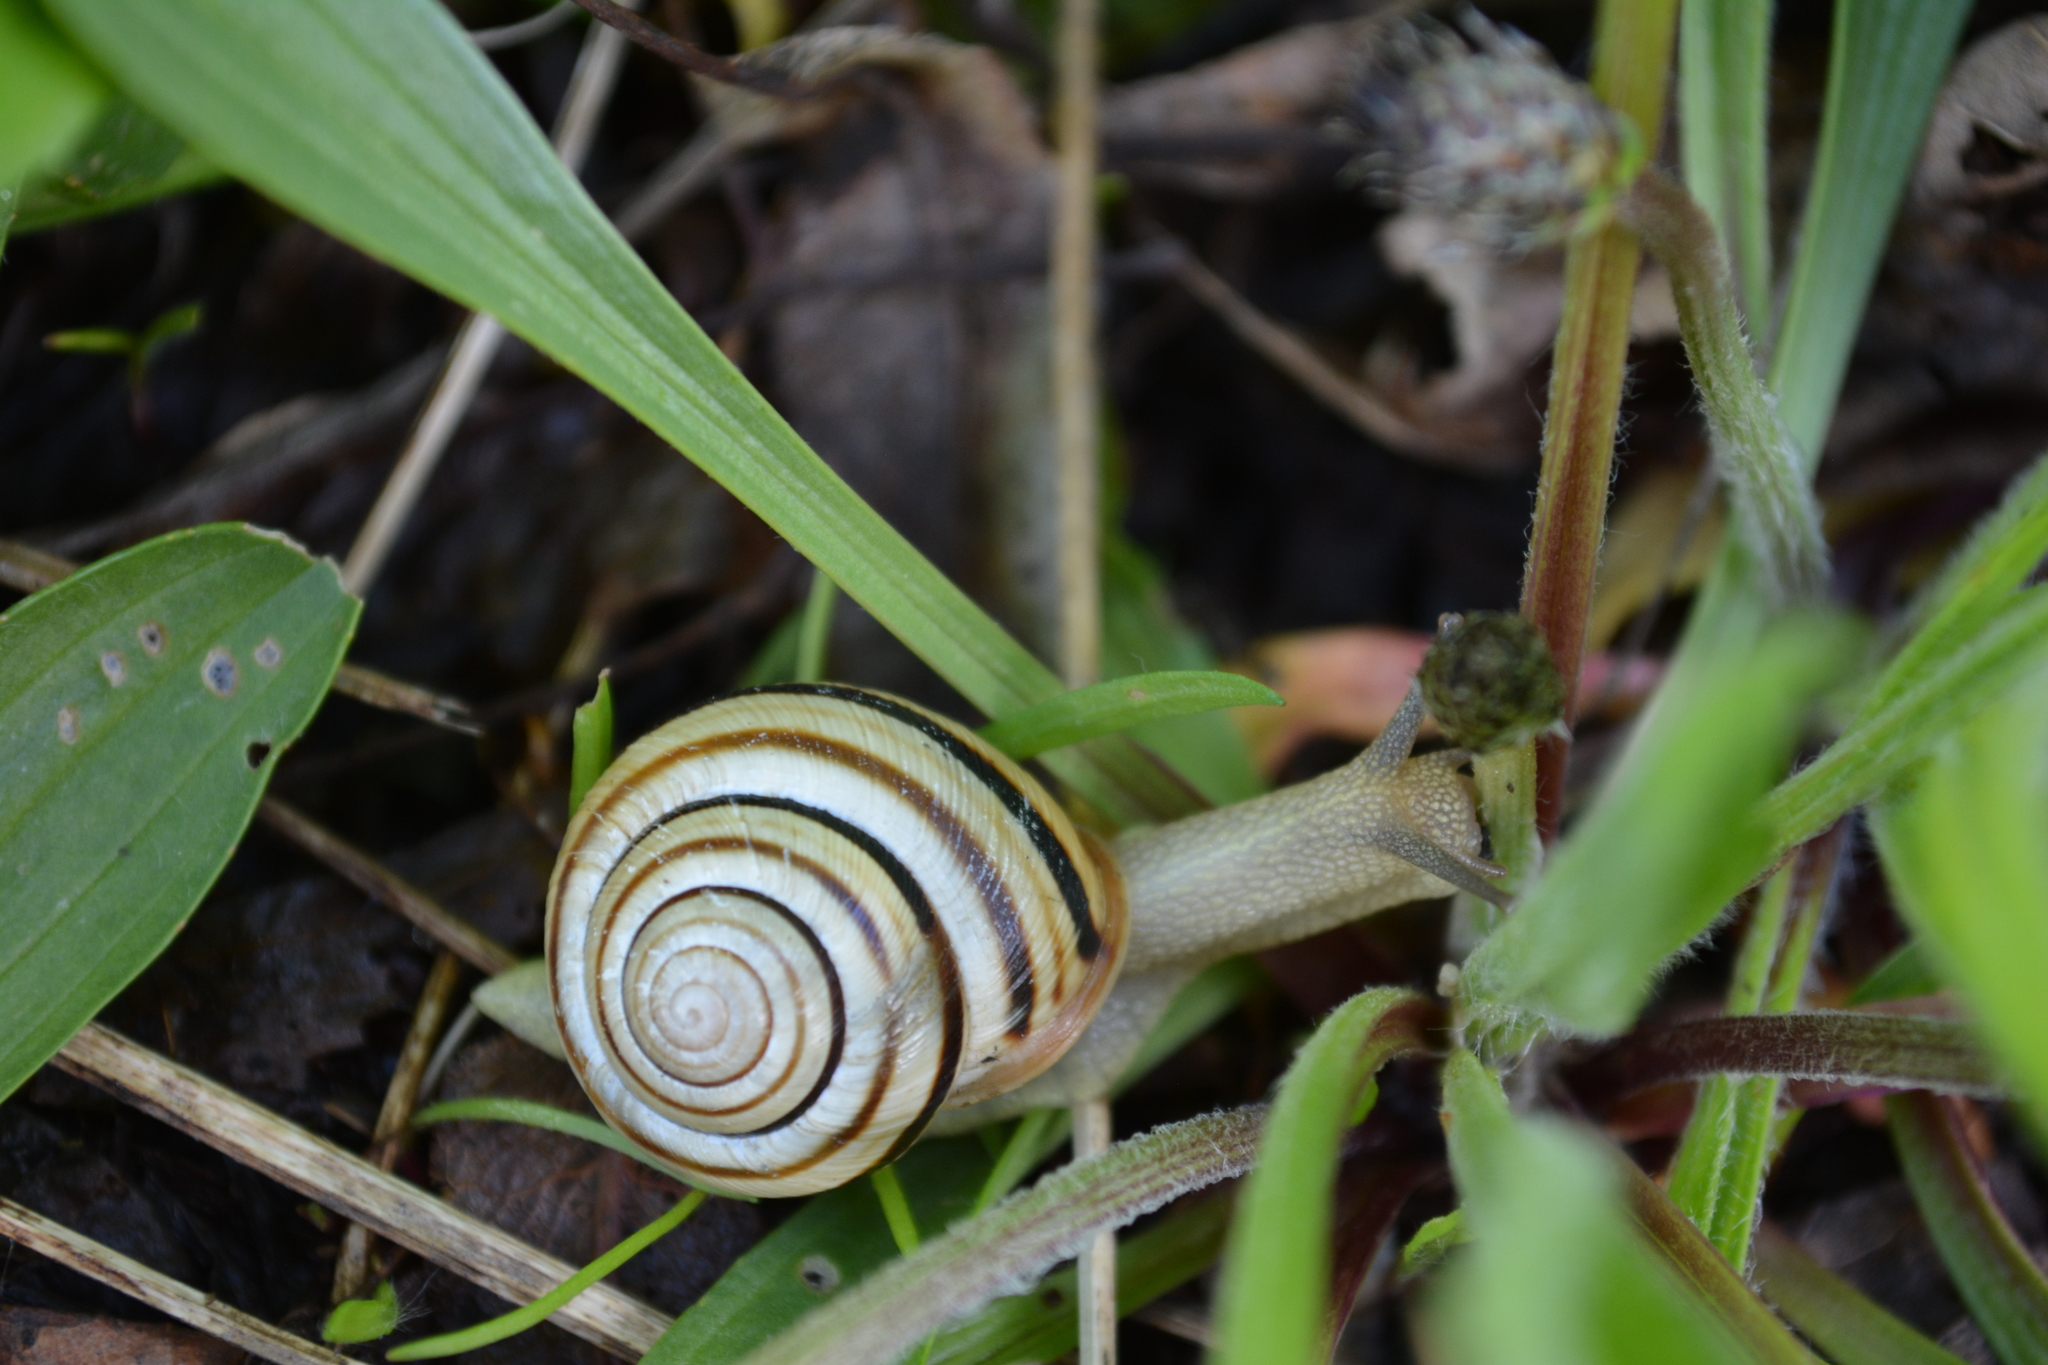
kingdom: Animalia
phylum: Mollusca
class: Gastropoda
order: Stylommatophora
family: Helicidae
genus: Caucasotachea
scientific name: Caucasotachea vindobonensis
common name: European helicid land snail
